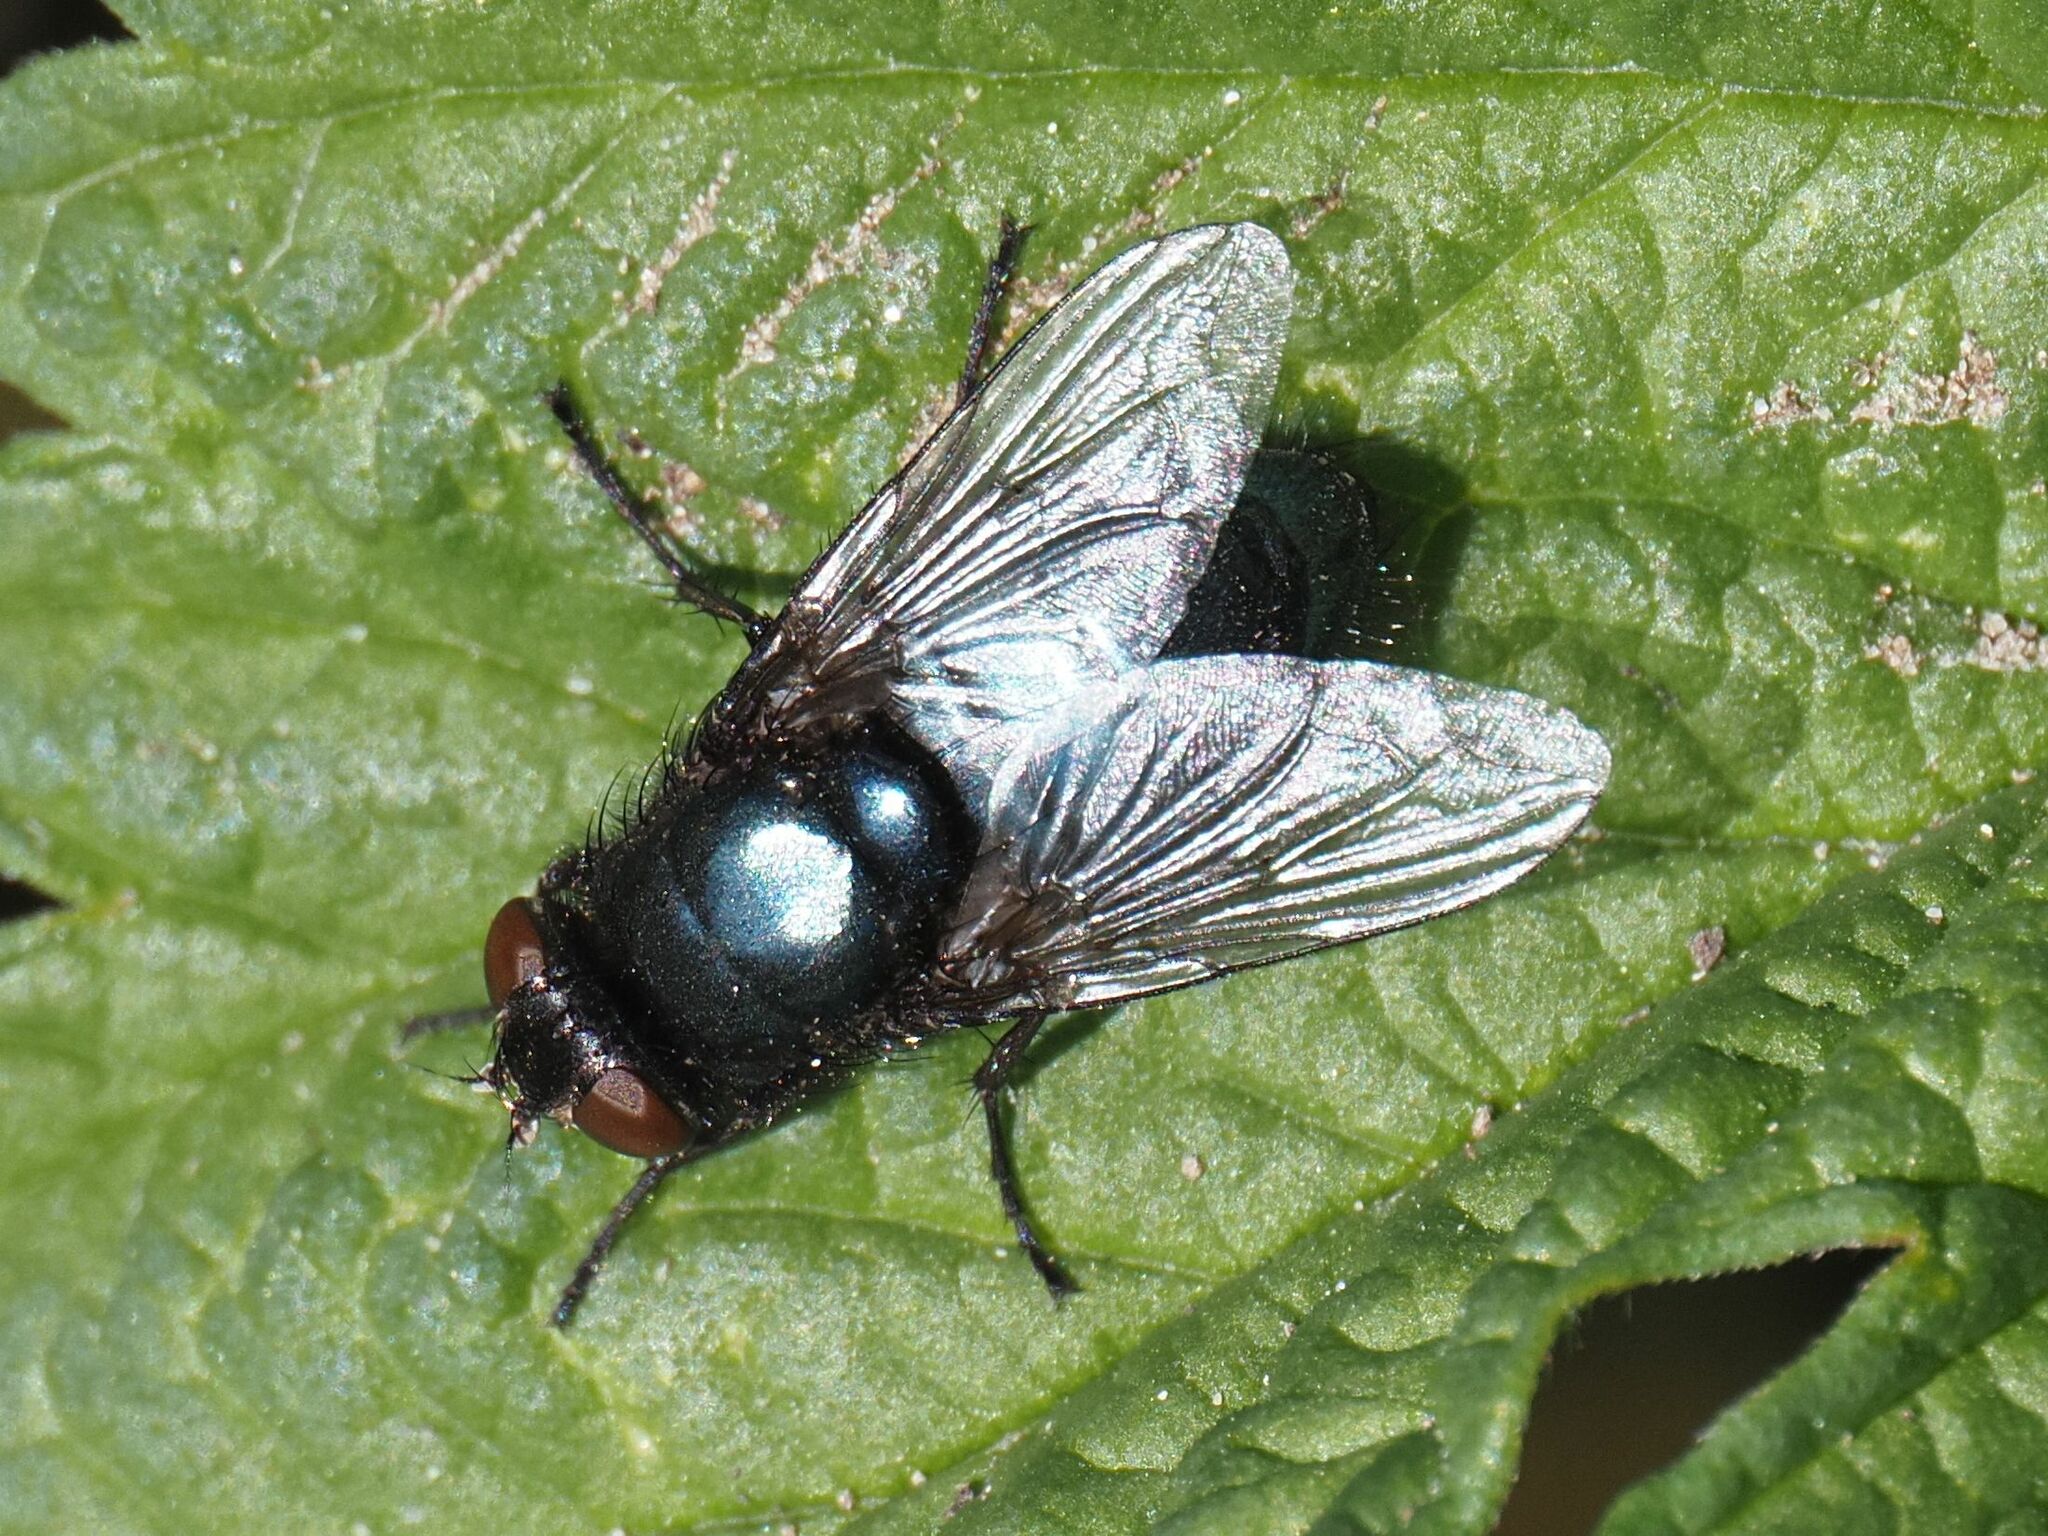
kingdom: Animalia
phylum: Arthropoda
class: Insecta
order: Diptera
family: Calliphoridae
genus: Protophormia
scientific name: Protophormia terraenovae
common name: Blackbottle
